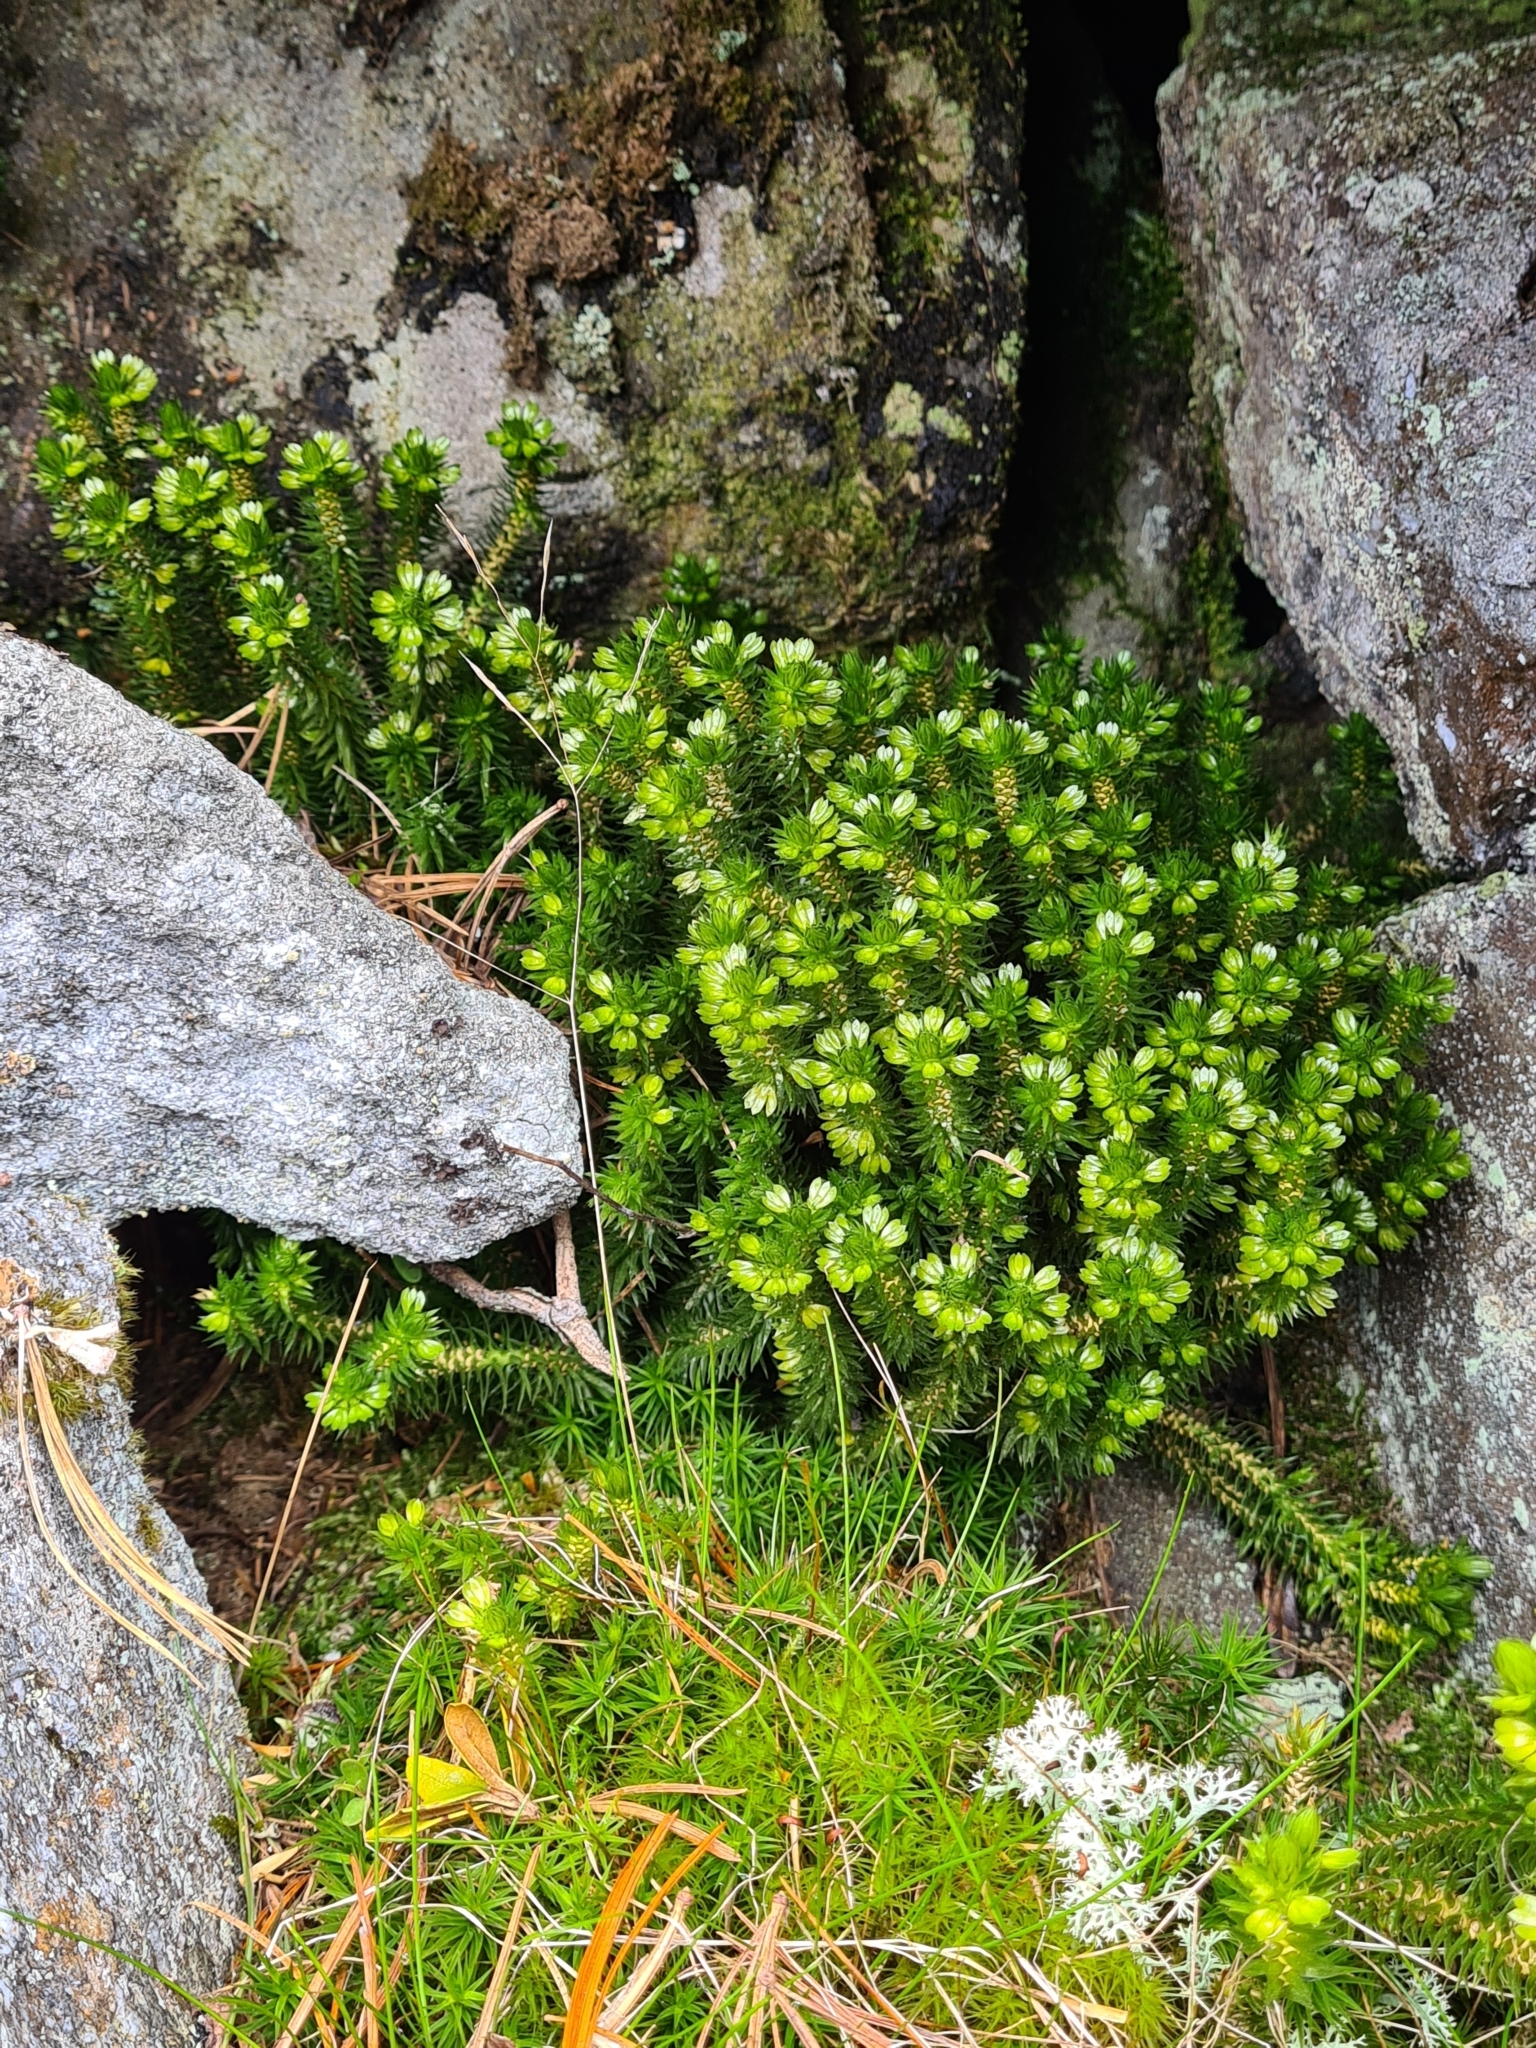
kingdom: Plantae
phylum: Tracheophyta
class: Lycopodiopsida
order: Lycopodiales
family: Lycopodiaceae
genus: Huperzia
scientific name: Huperzia selago
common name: Northern firmoss
